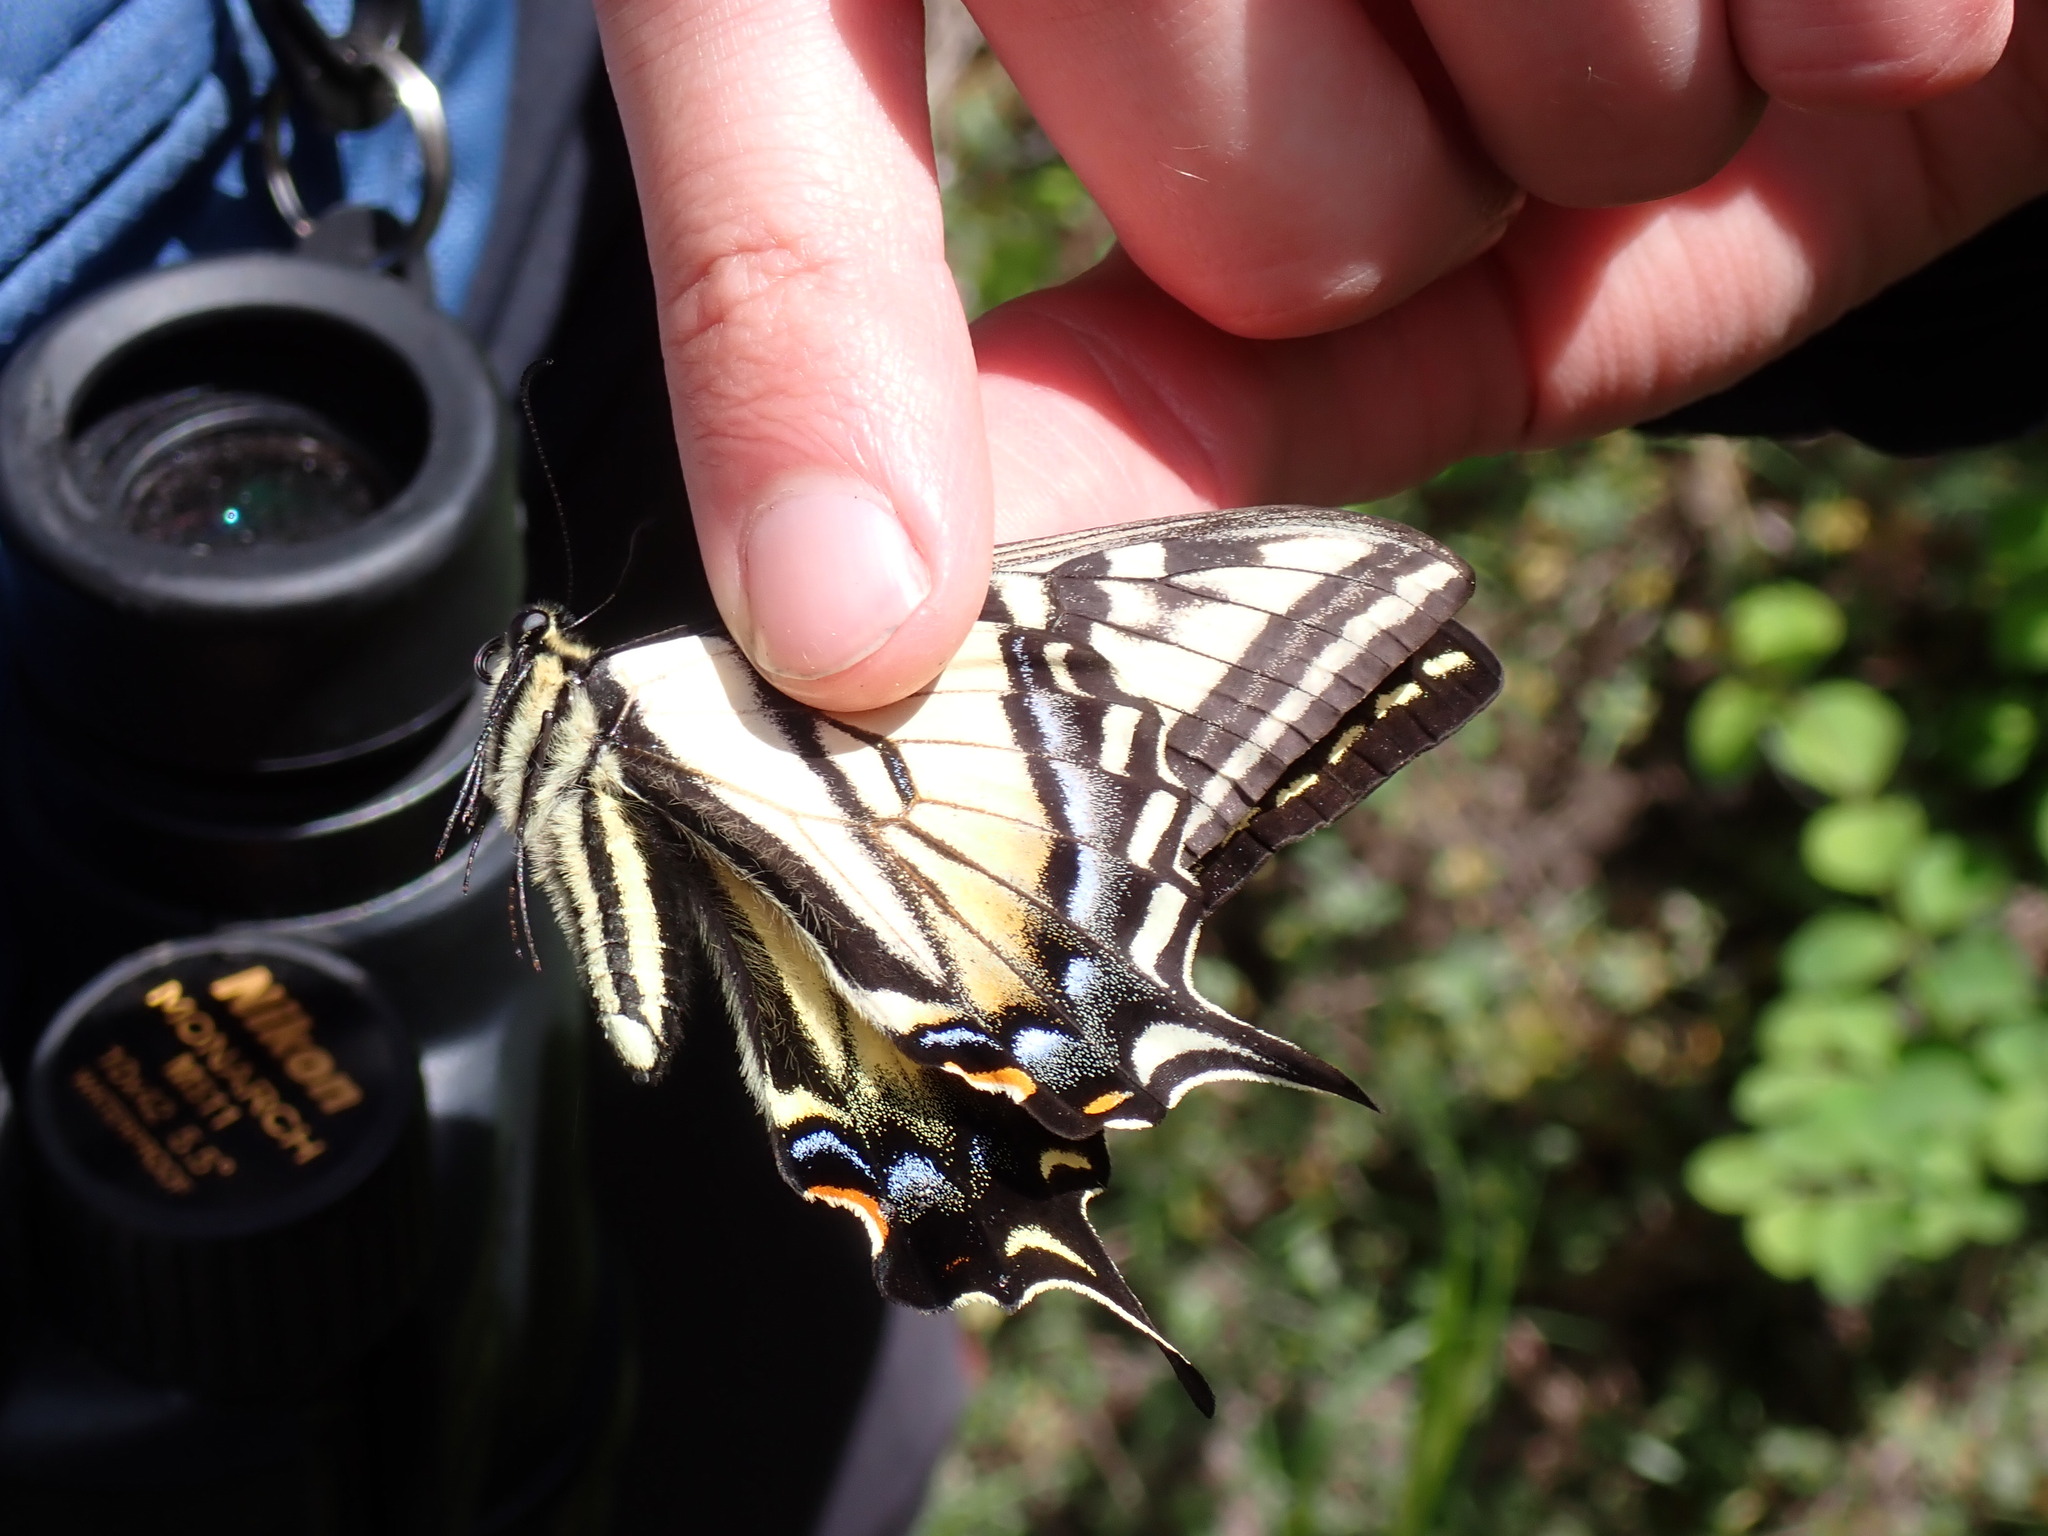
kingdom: Animalia
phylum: Arthropoda
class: Insecta
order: Lepidoptera
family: Papilionidae
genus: Papilio
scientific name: Papilio rutulus
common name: Western tiger swallowtail
